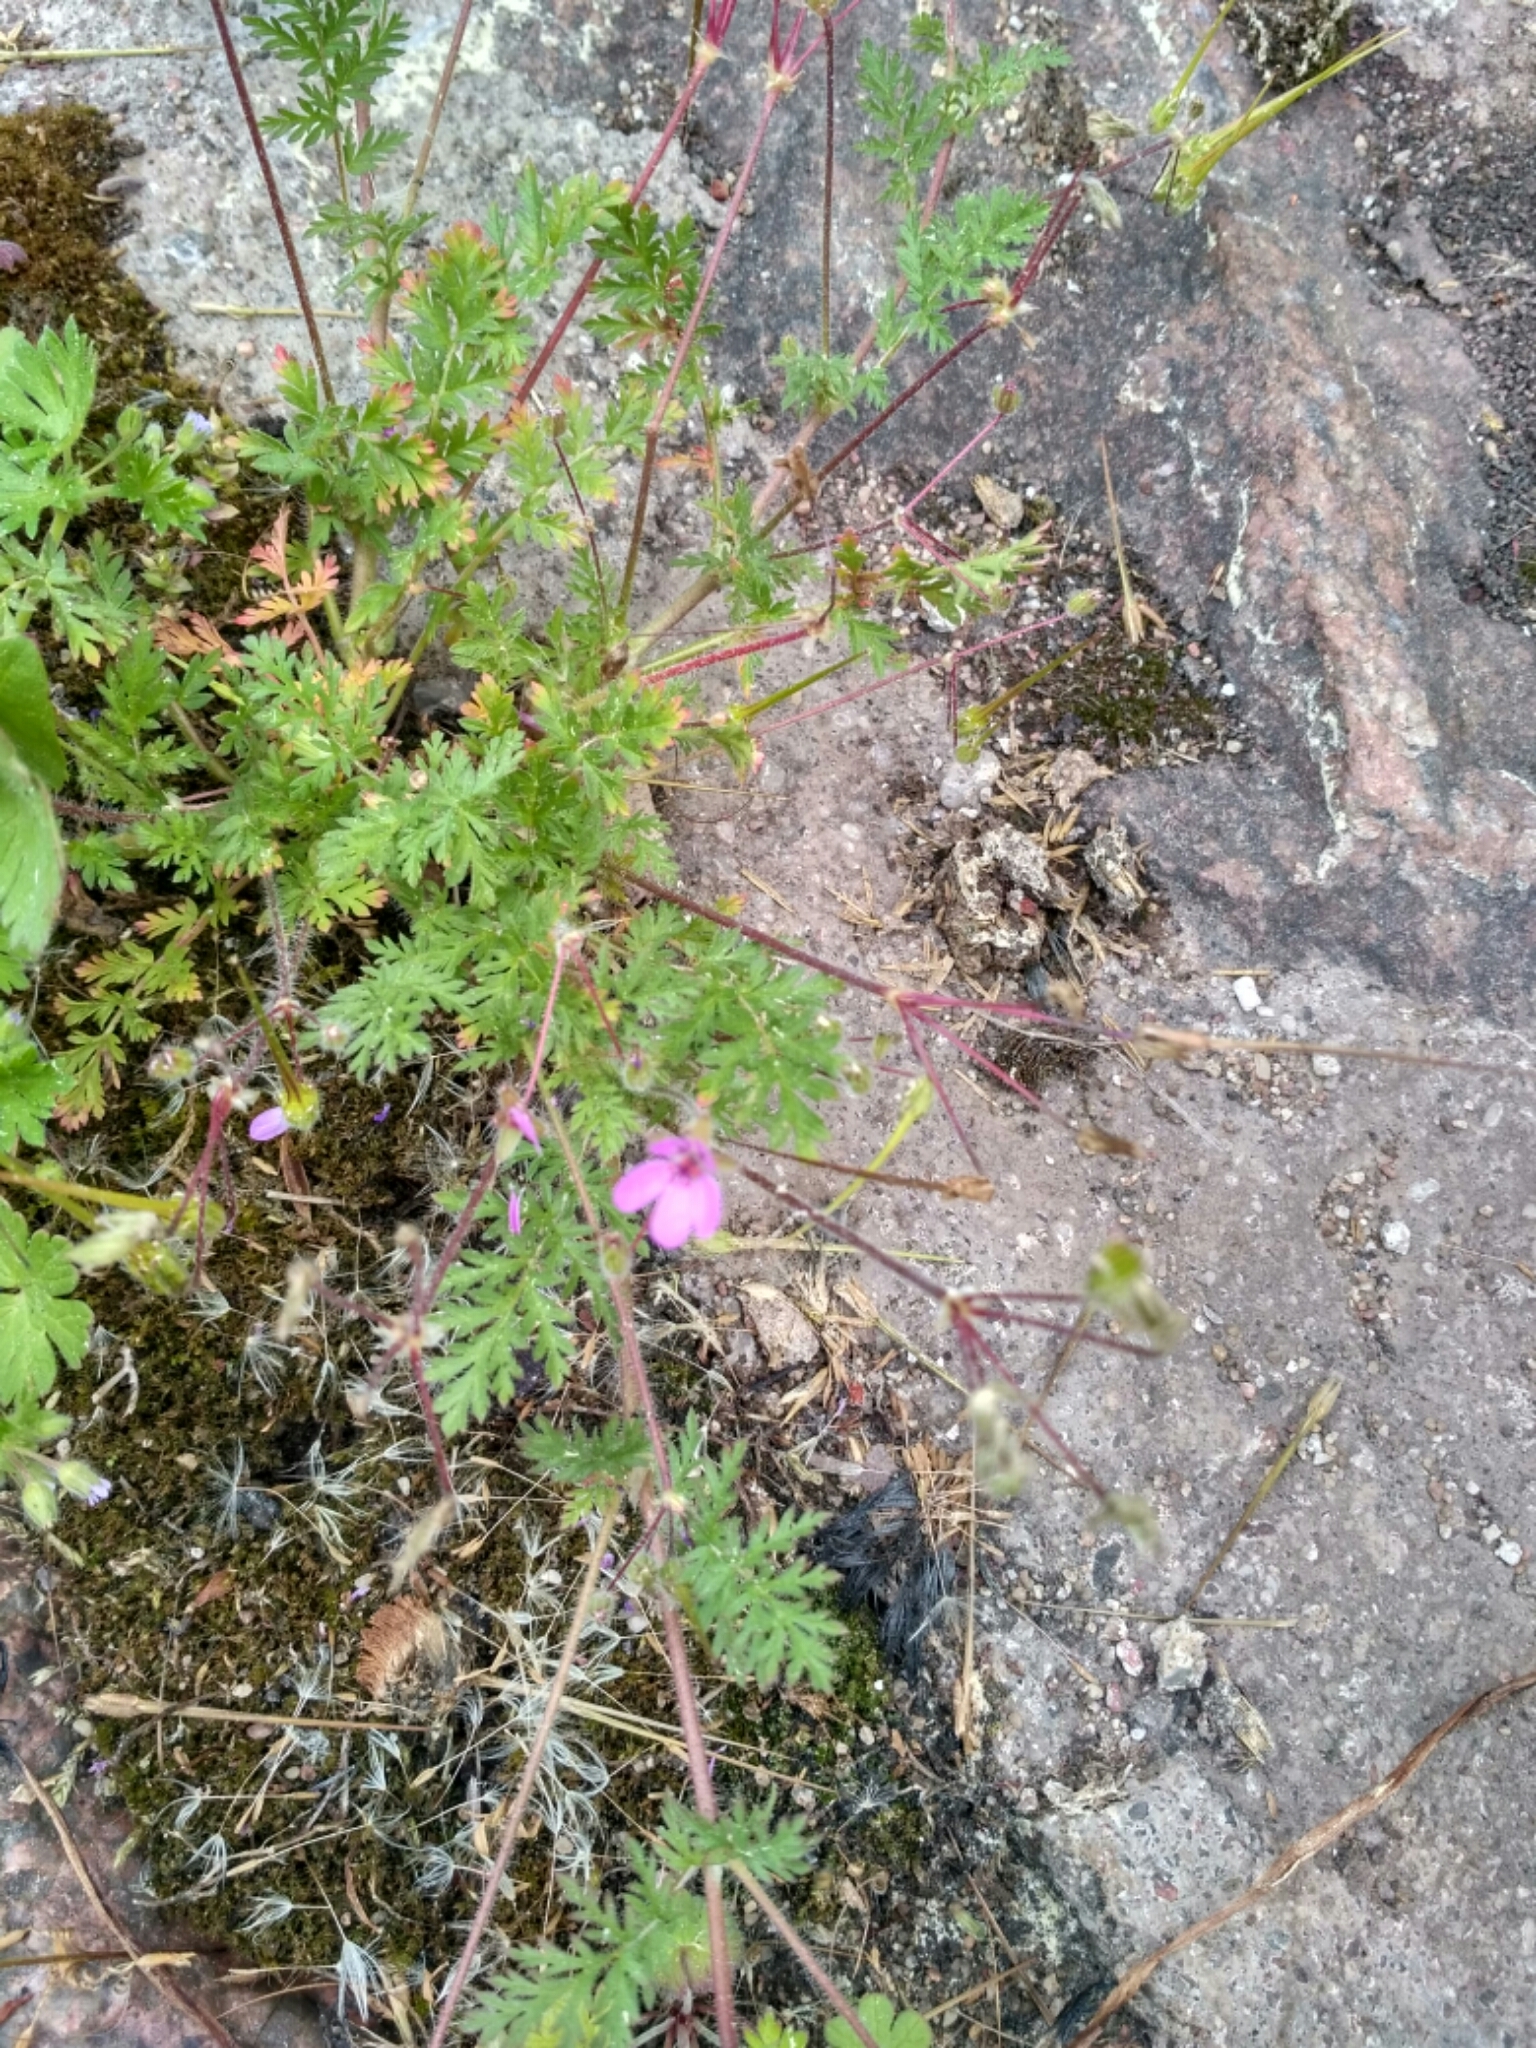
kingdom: Plantae
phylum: Tracheophyta
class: Magnoliopsida
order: Geraniales
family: Geraniaceae
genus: Erodium
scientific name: Erodium cicutarium
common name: Common stork's-bill
